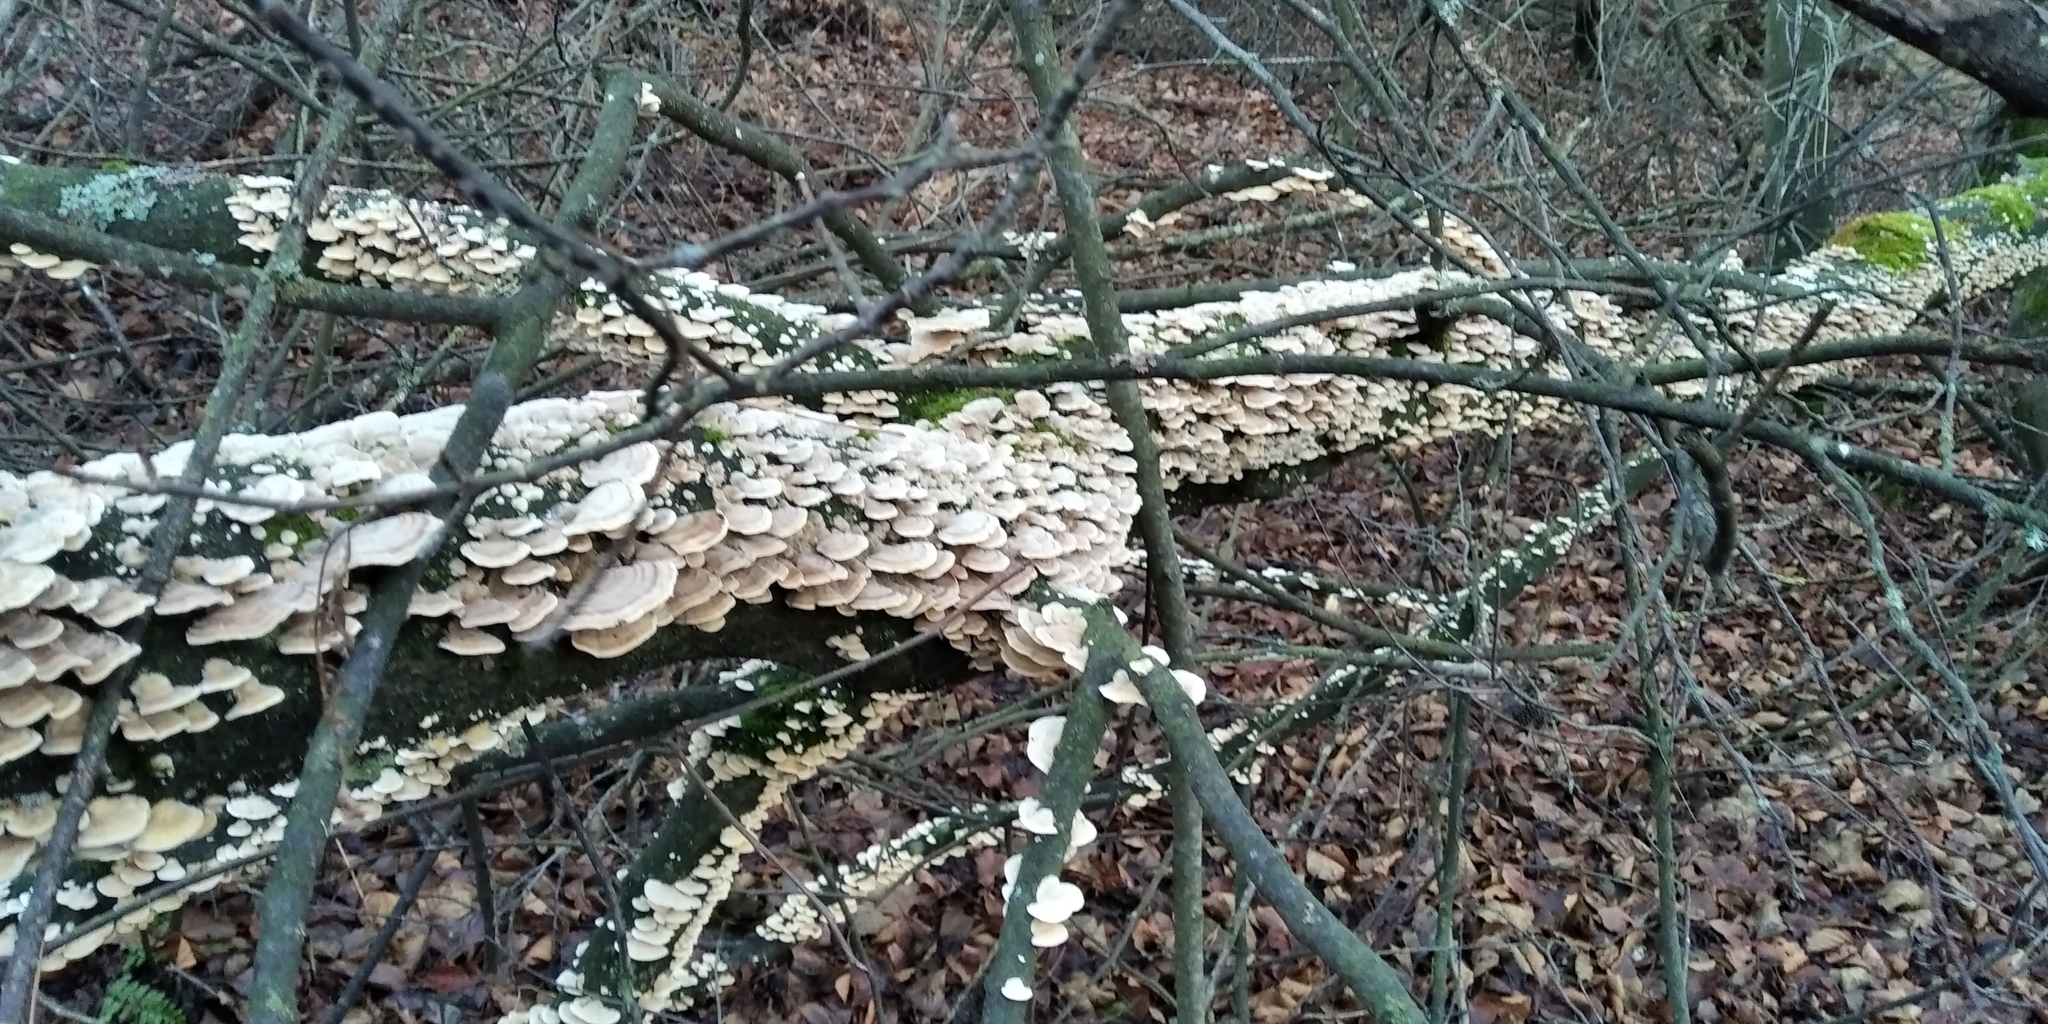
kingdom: Fungi
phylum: Basidiomycota
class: Agaricomycetes
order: Polyporales
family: Polyporaceae
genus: Trametes
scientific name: Trametes ochracea
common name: Ochre bracket
